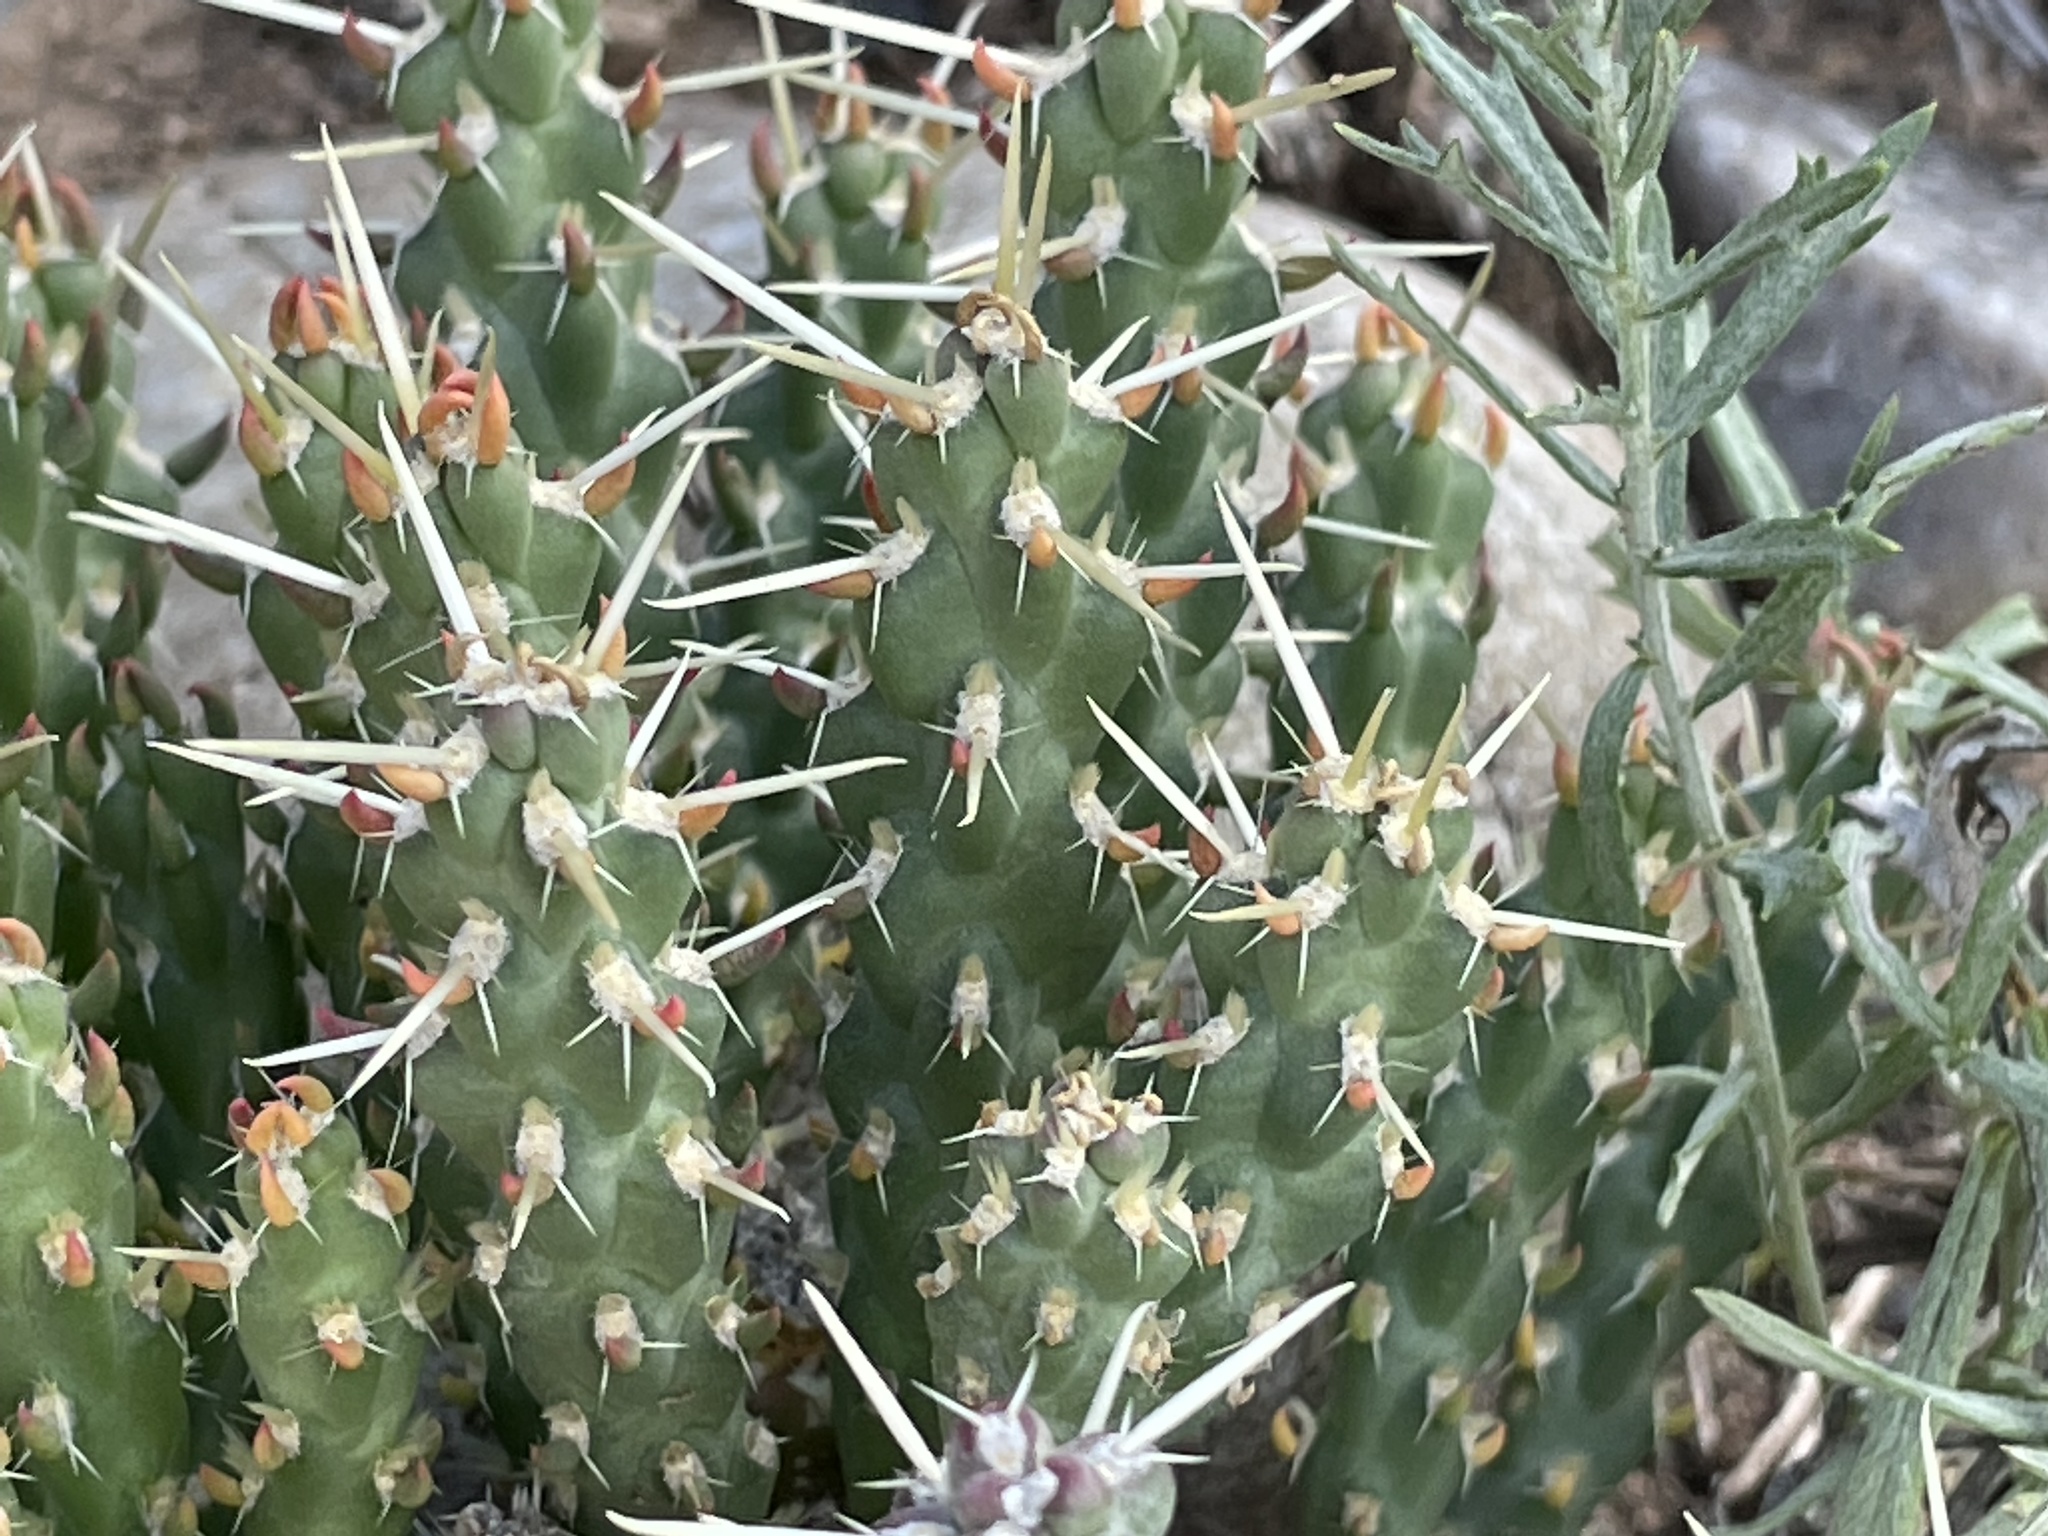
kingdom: Plantae
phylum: Tracheophyta
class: Magnoliopsida
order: Caryophyllales
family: Cactaceae
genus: Cylindropuntia
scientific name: Cylindropuntia whipplei
